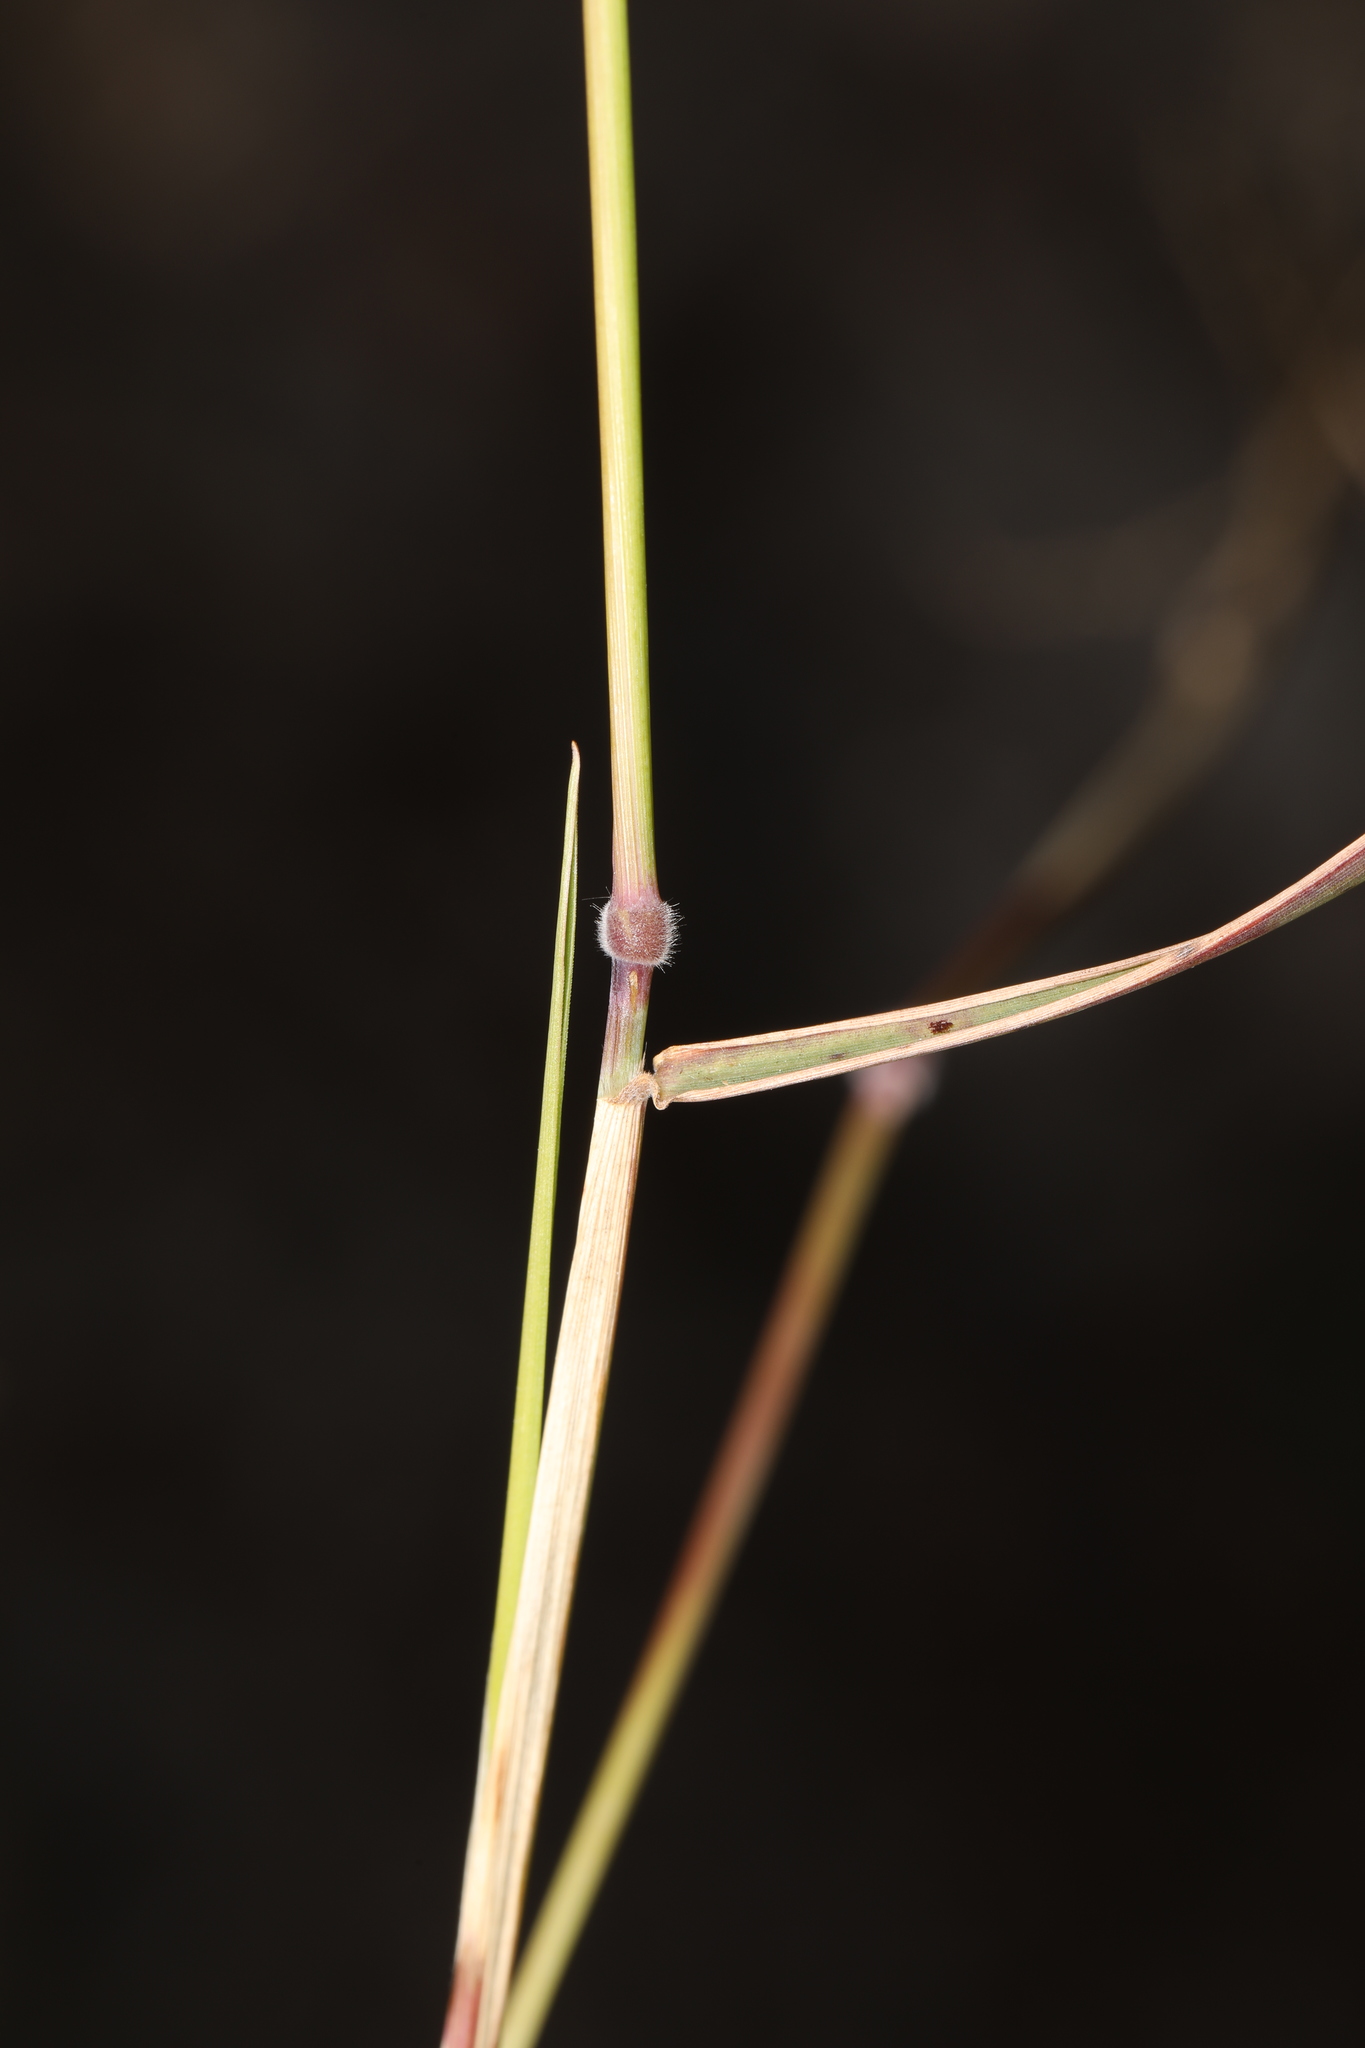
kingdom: Plantae
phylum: Tracheophyta
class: Liliopsida
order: Poales
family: Poaceae
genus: Melinis
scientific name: Melinis repens
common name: Rose natal grass
